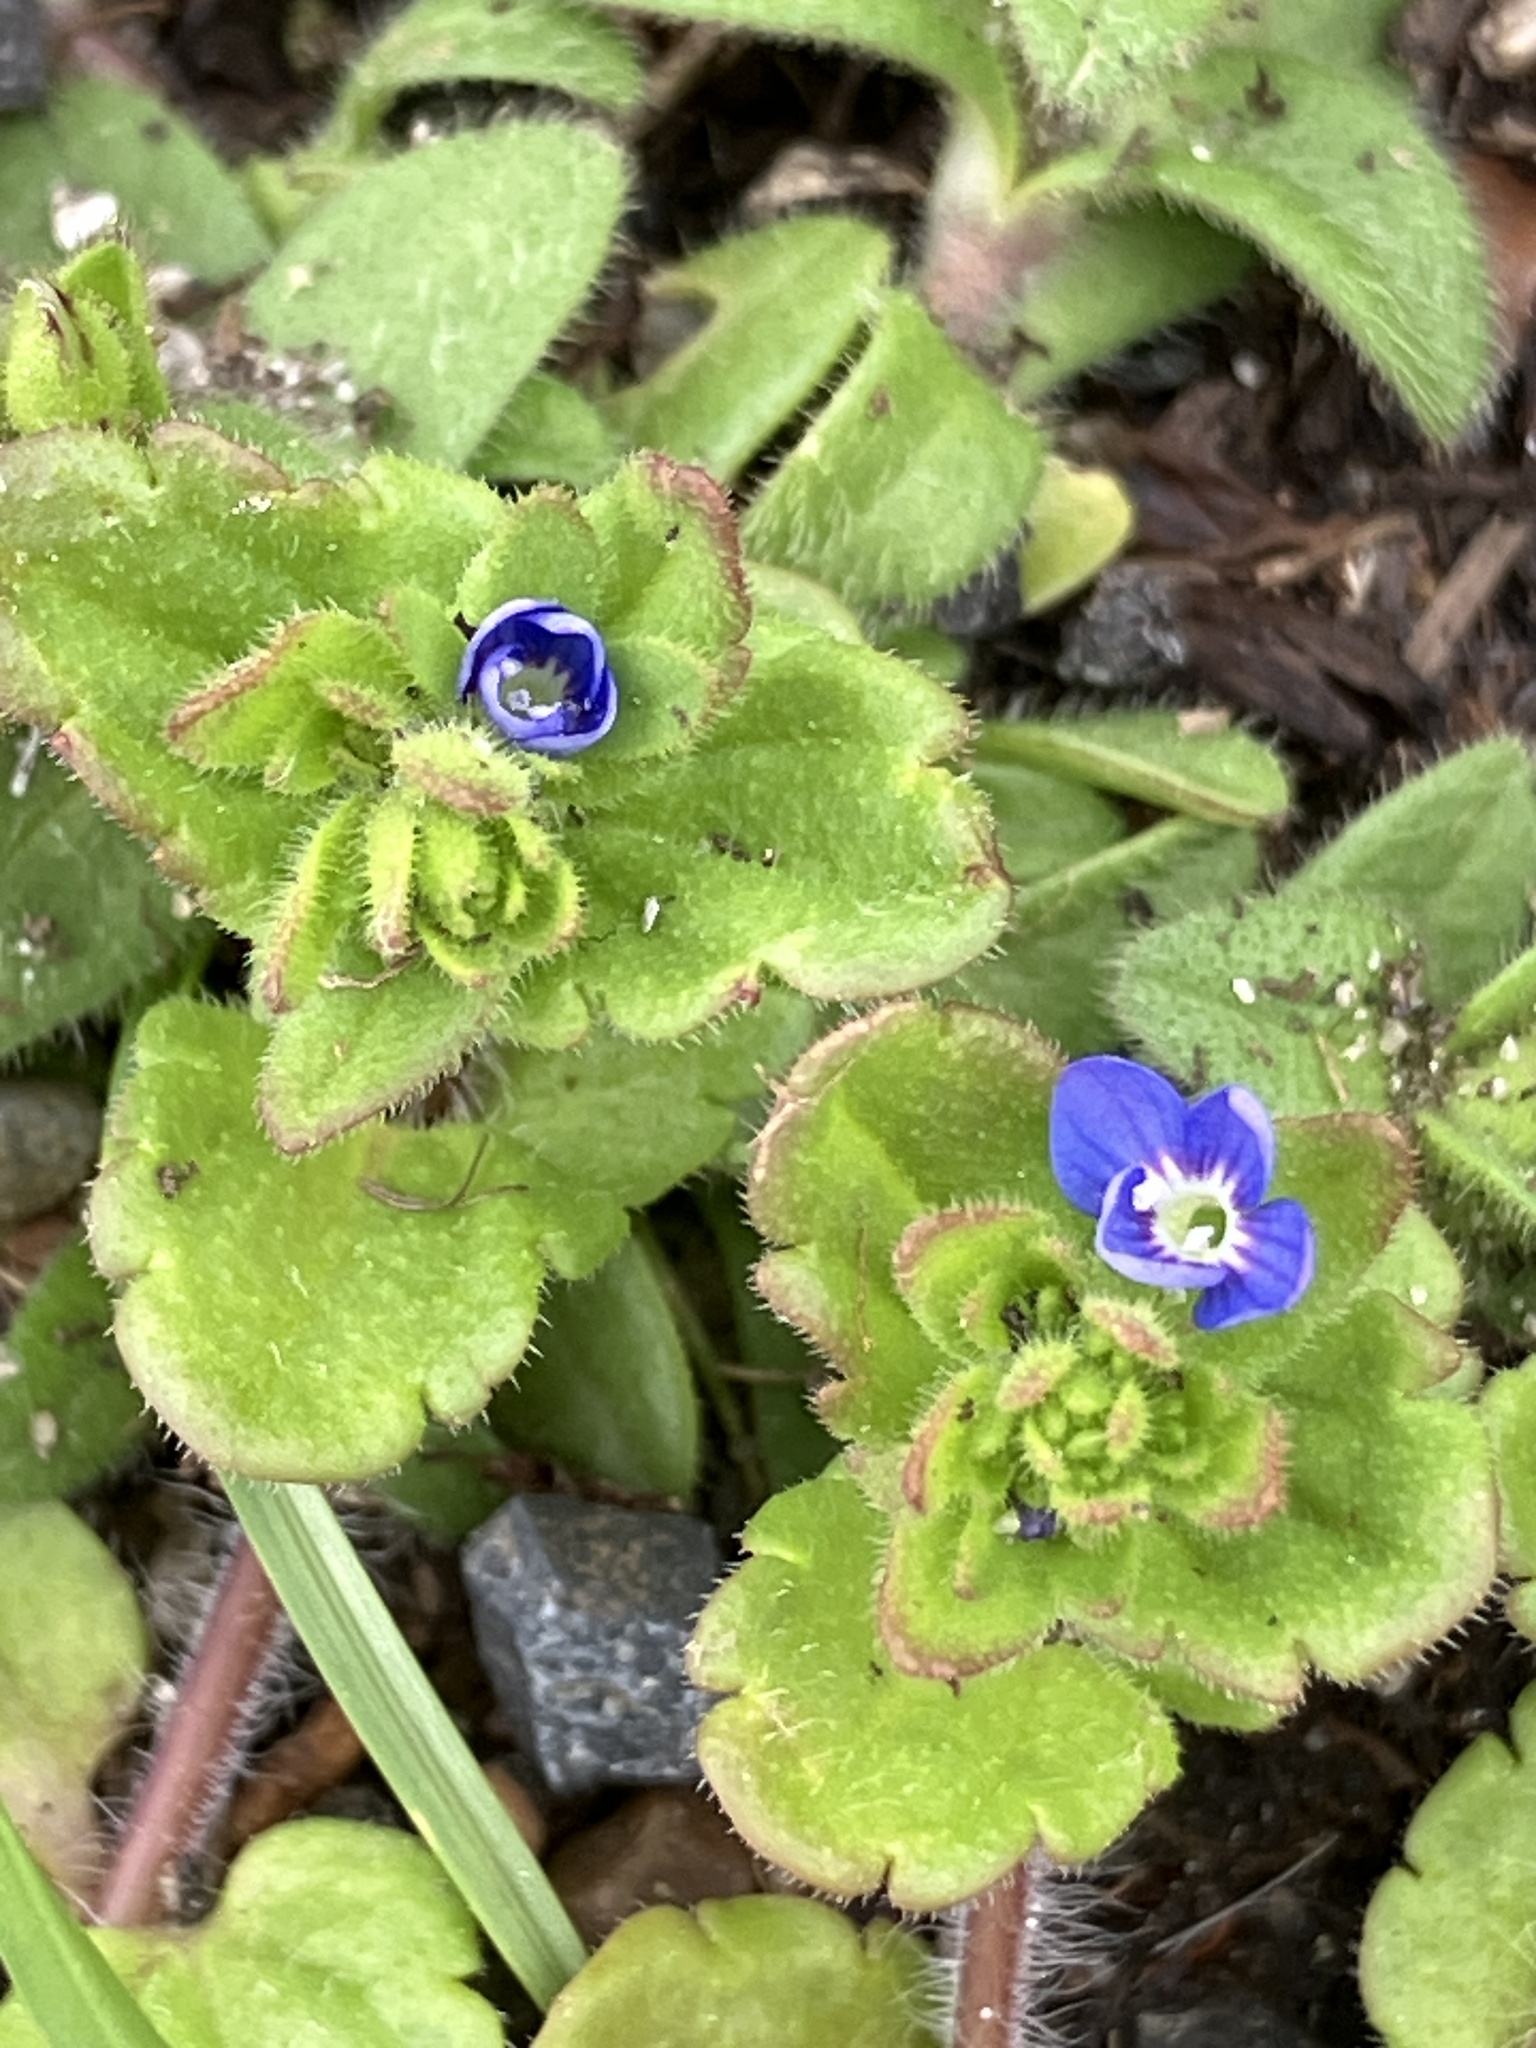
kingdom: Plantae
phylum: Tracheophyta
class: Magnoliopsida
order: Lamiales
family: Plantaginaceae
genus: Veronica
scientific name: Veronica arvensis
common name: Corn speedwell
